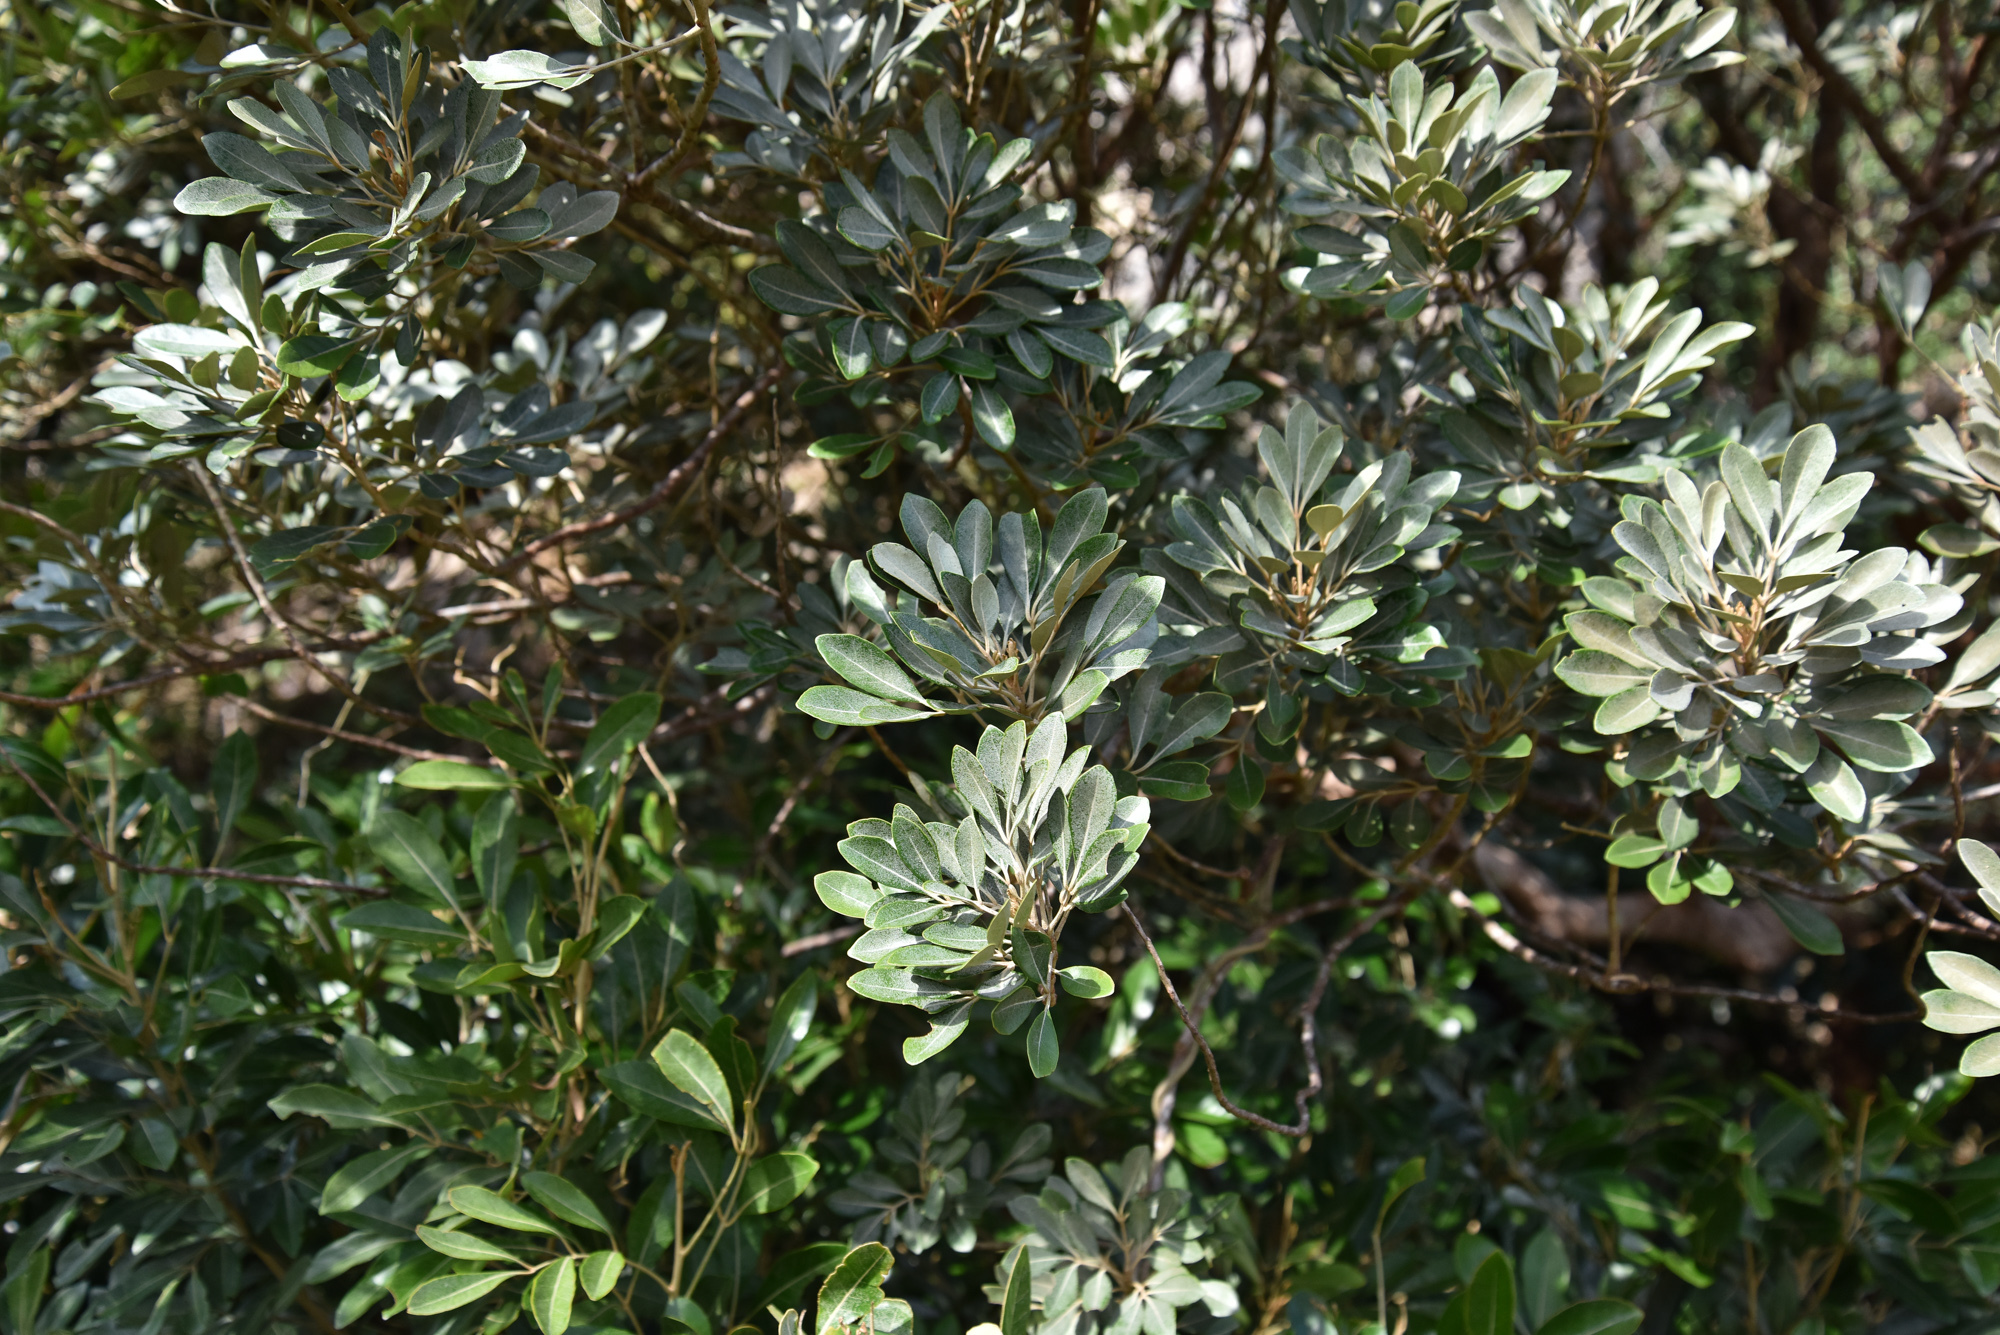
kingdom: Plantae
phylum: Tracheophyta
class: Magnoliopsida
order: Sapindales
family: Meliaceae
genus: Aglaia
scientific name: Aglaia elaeagnoidea
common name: Droopyleaf
